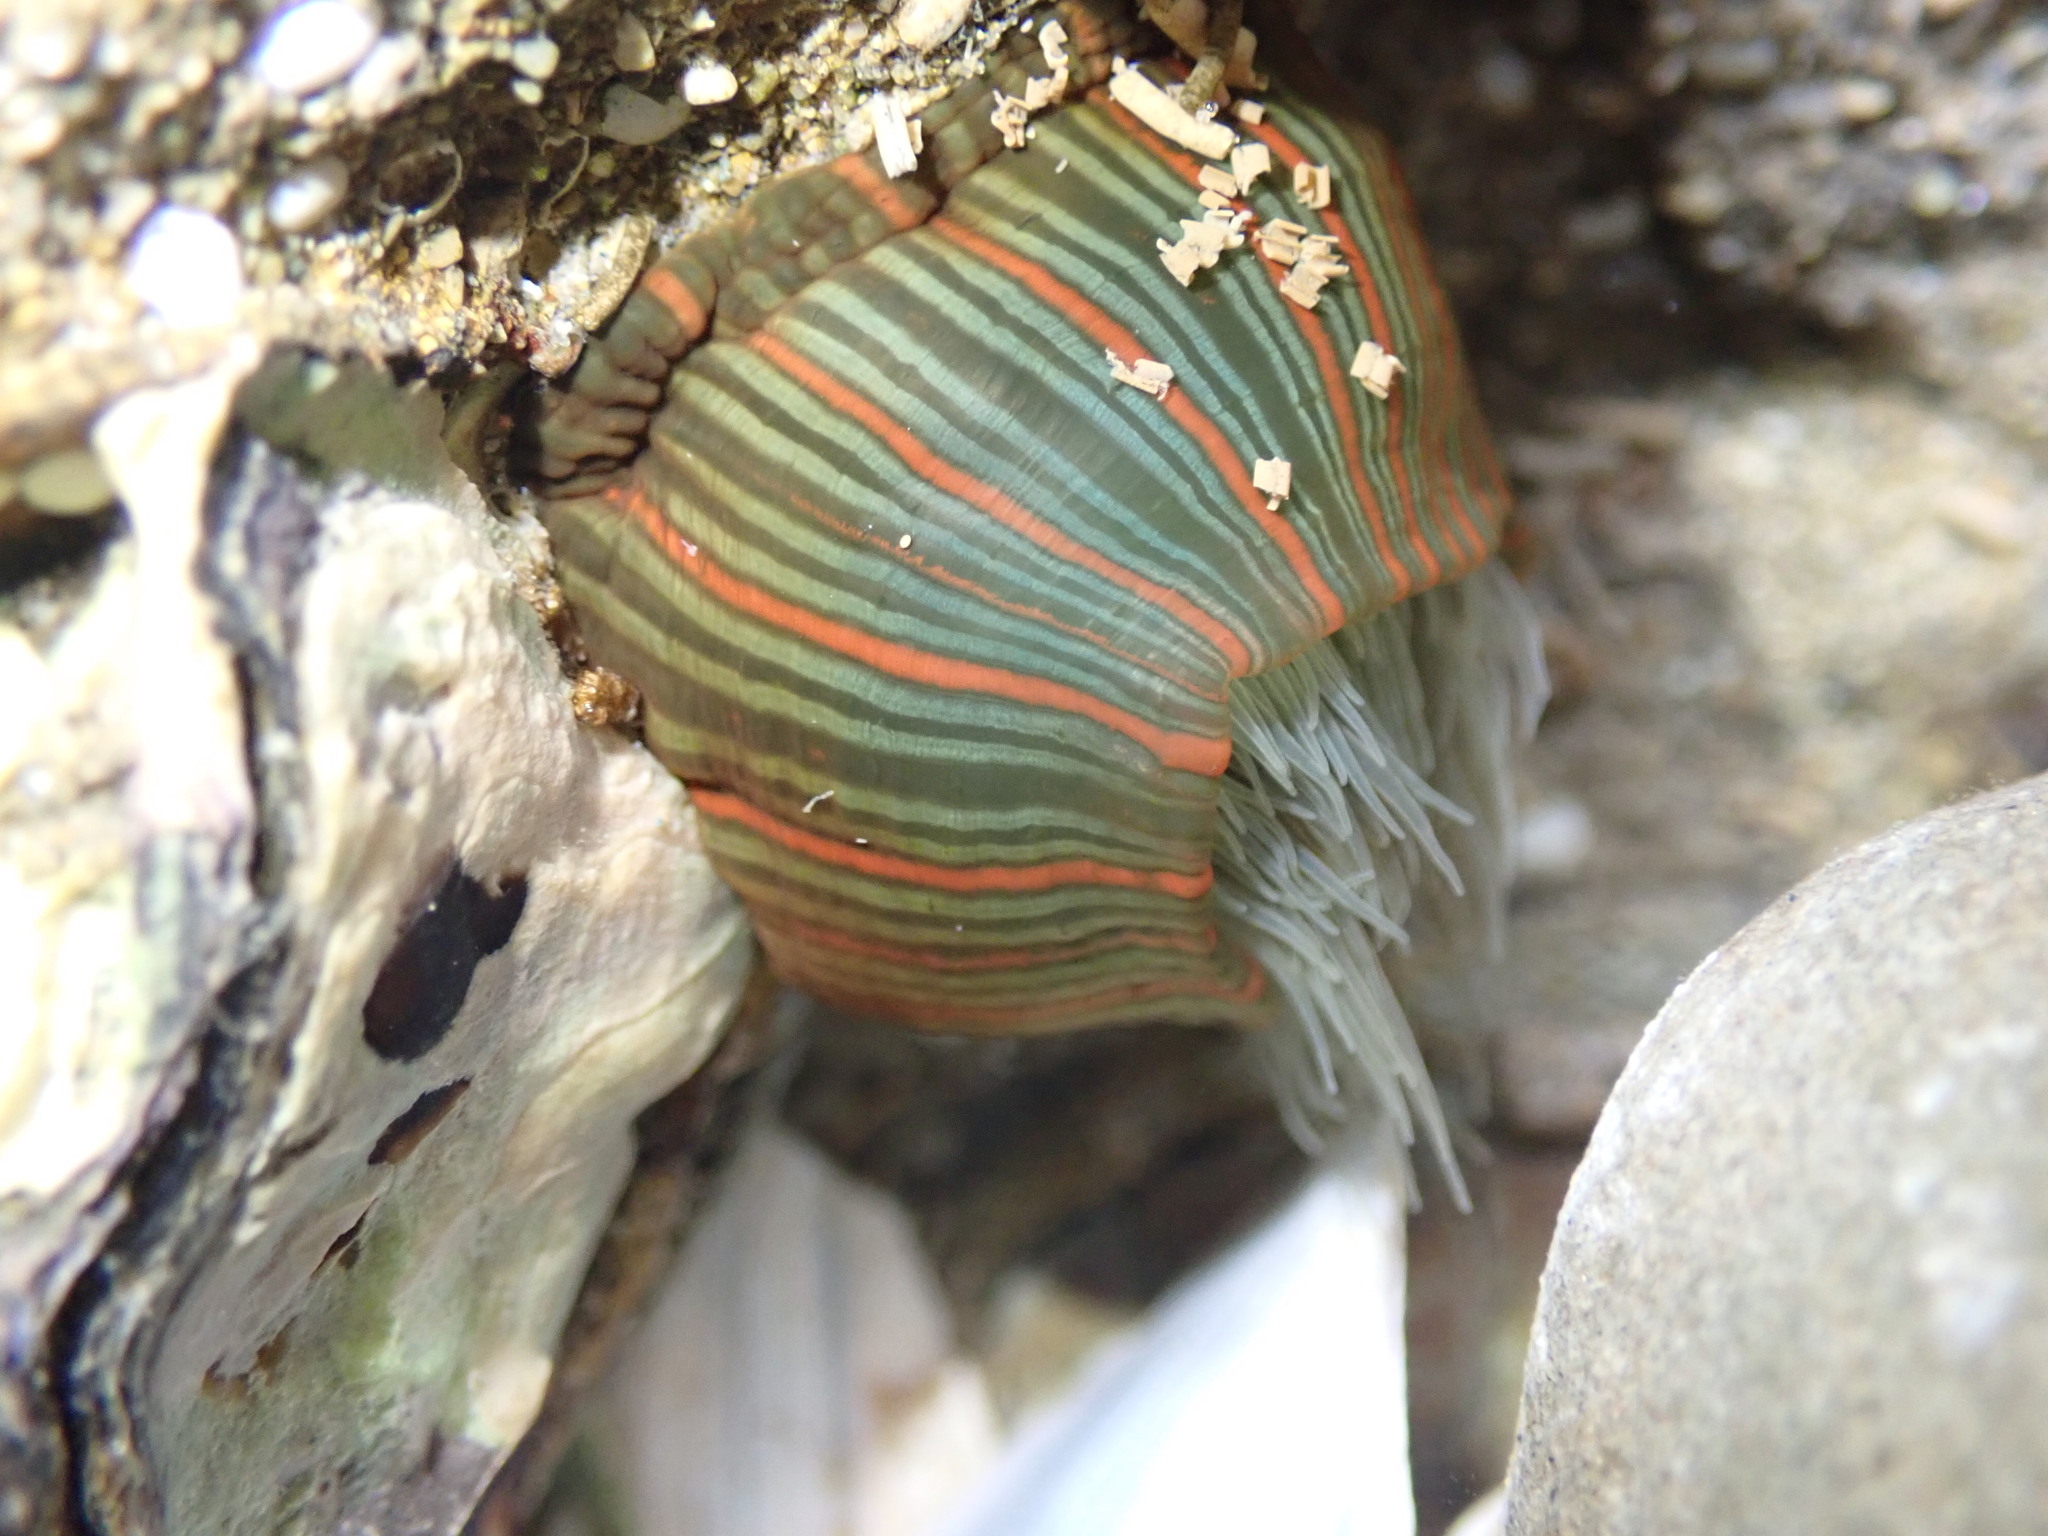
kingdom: Animalia
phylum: Cnidaria
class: Anthozoa
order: Actiniaria
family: Diadumenidae
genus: Diadumene
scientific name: Diadumene lineata
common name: Orange-striped anemone
